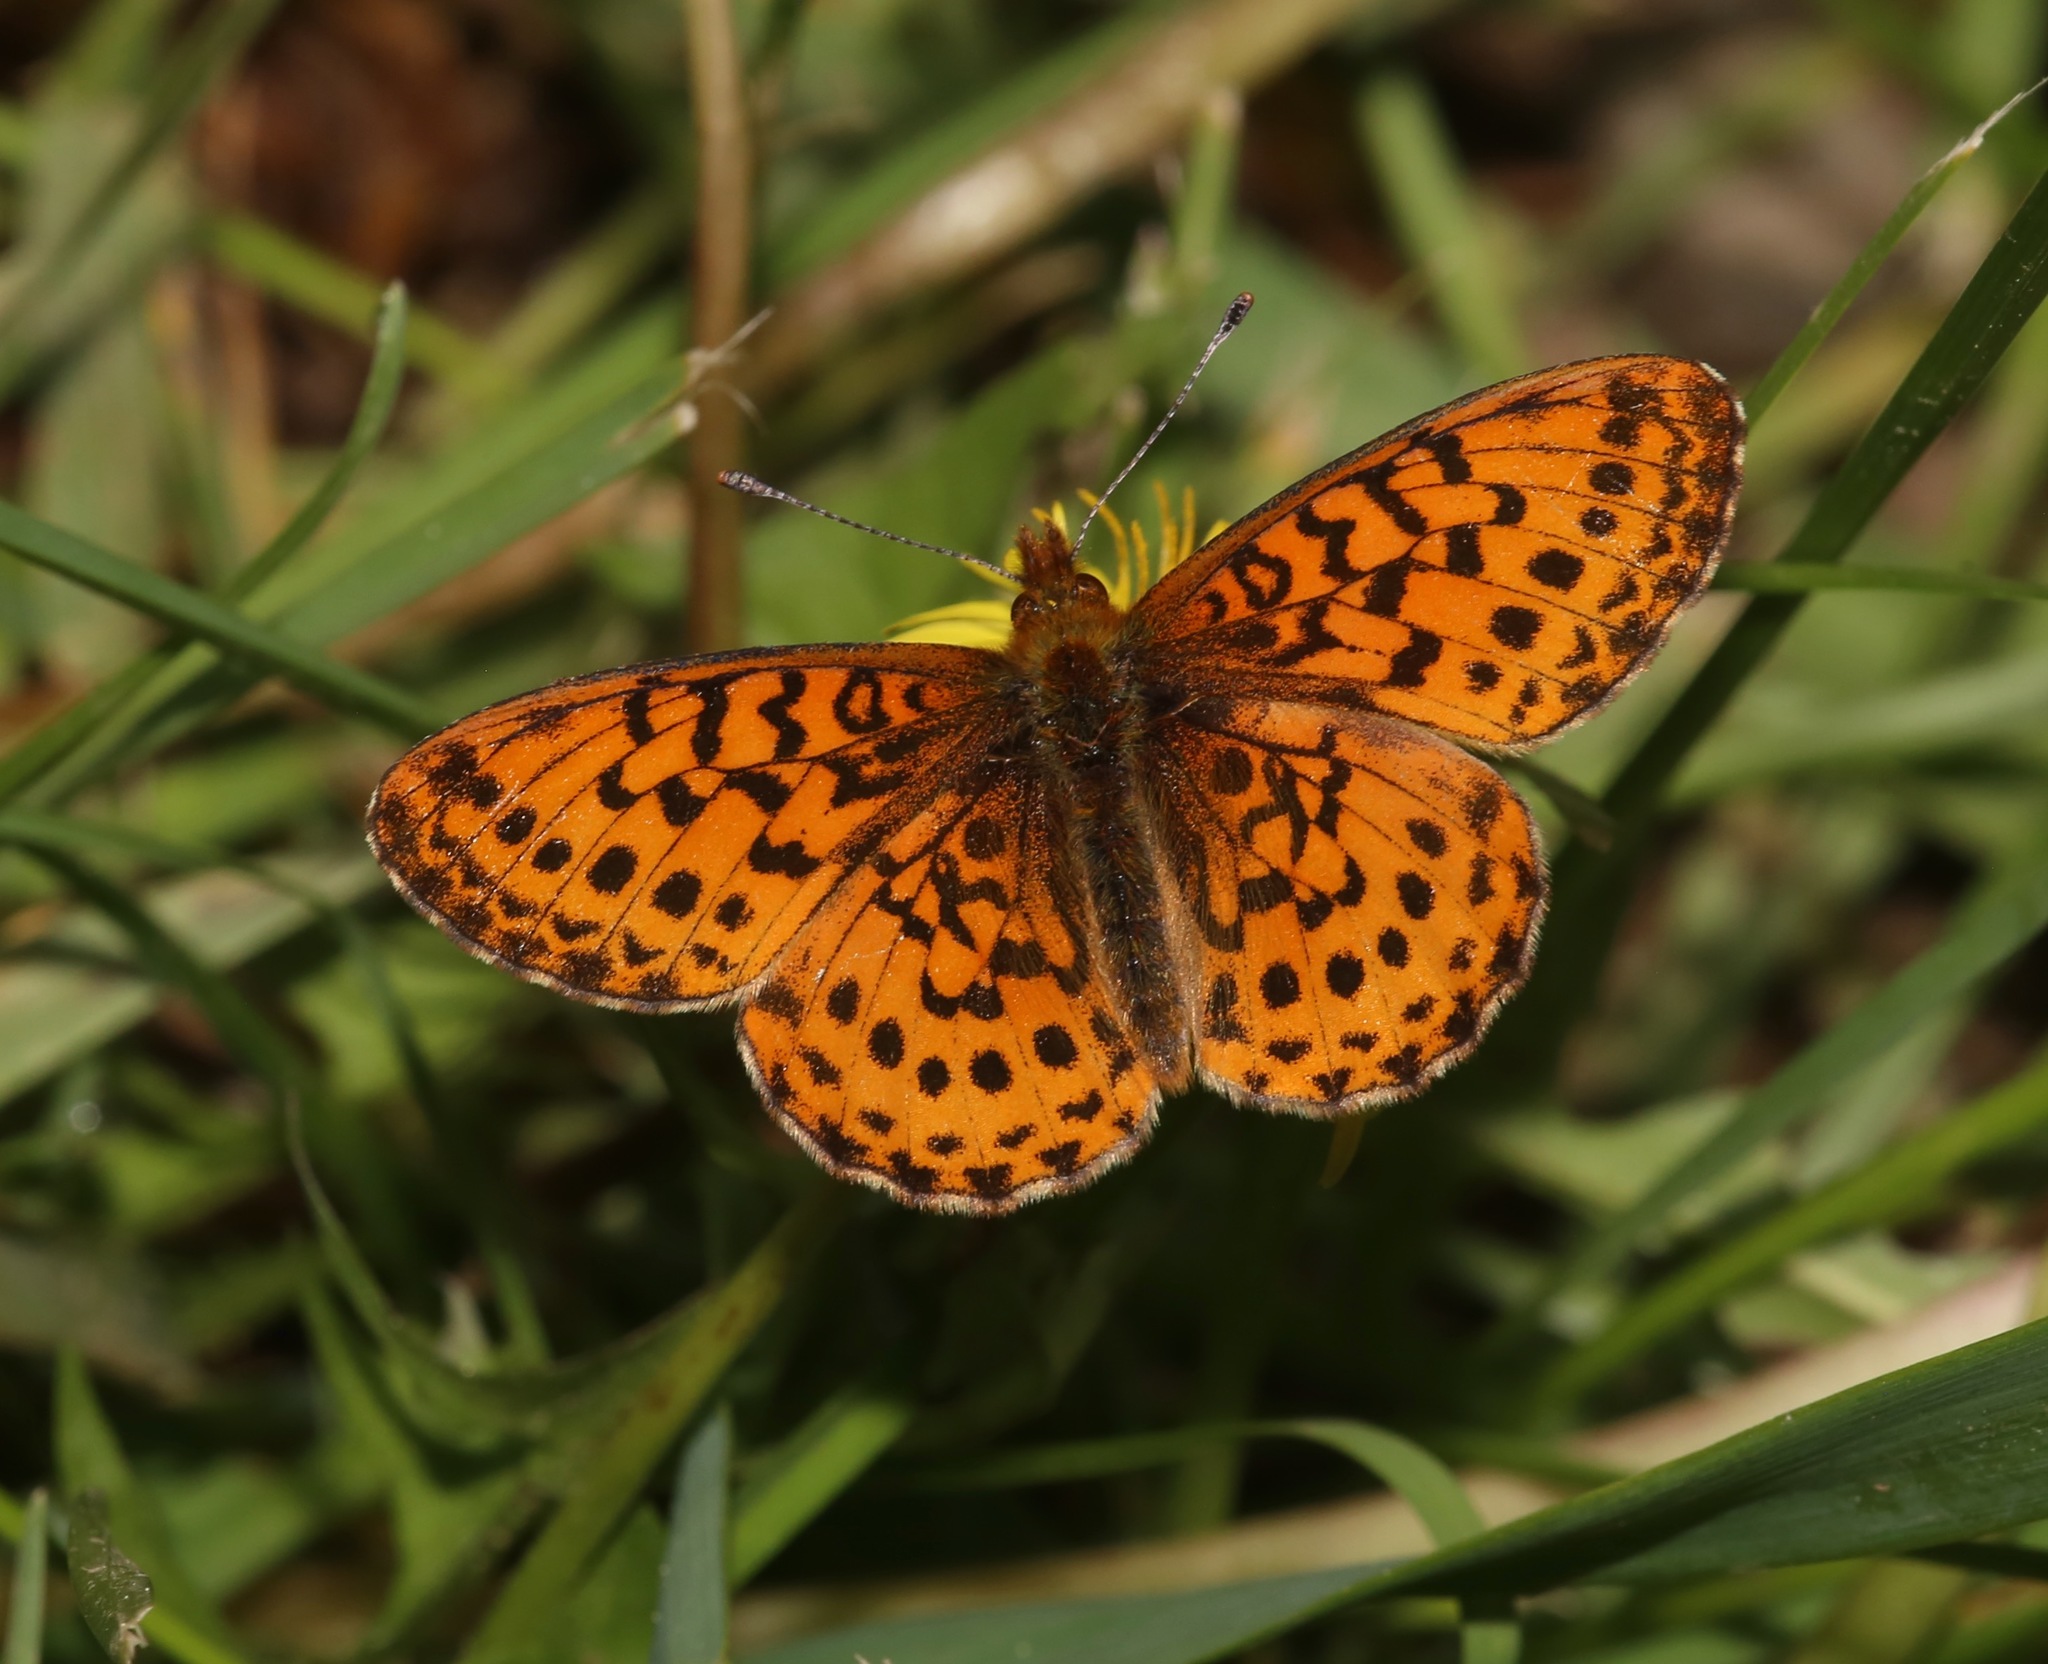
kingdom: Animalia
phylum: Arthropoda
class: Insecta
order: Lepidoptera
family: Nymphalidae
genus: Boloria
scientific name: Boloria epithore
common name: Pacific fritillary
